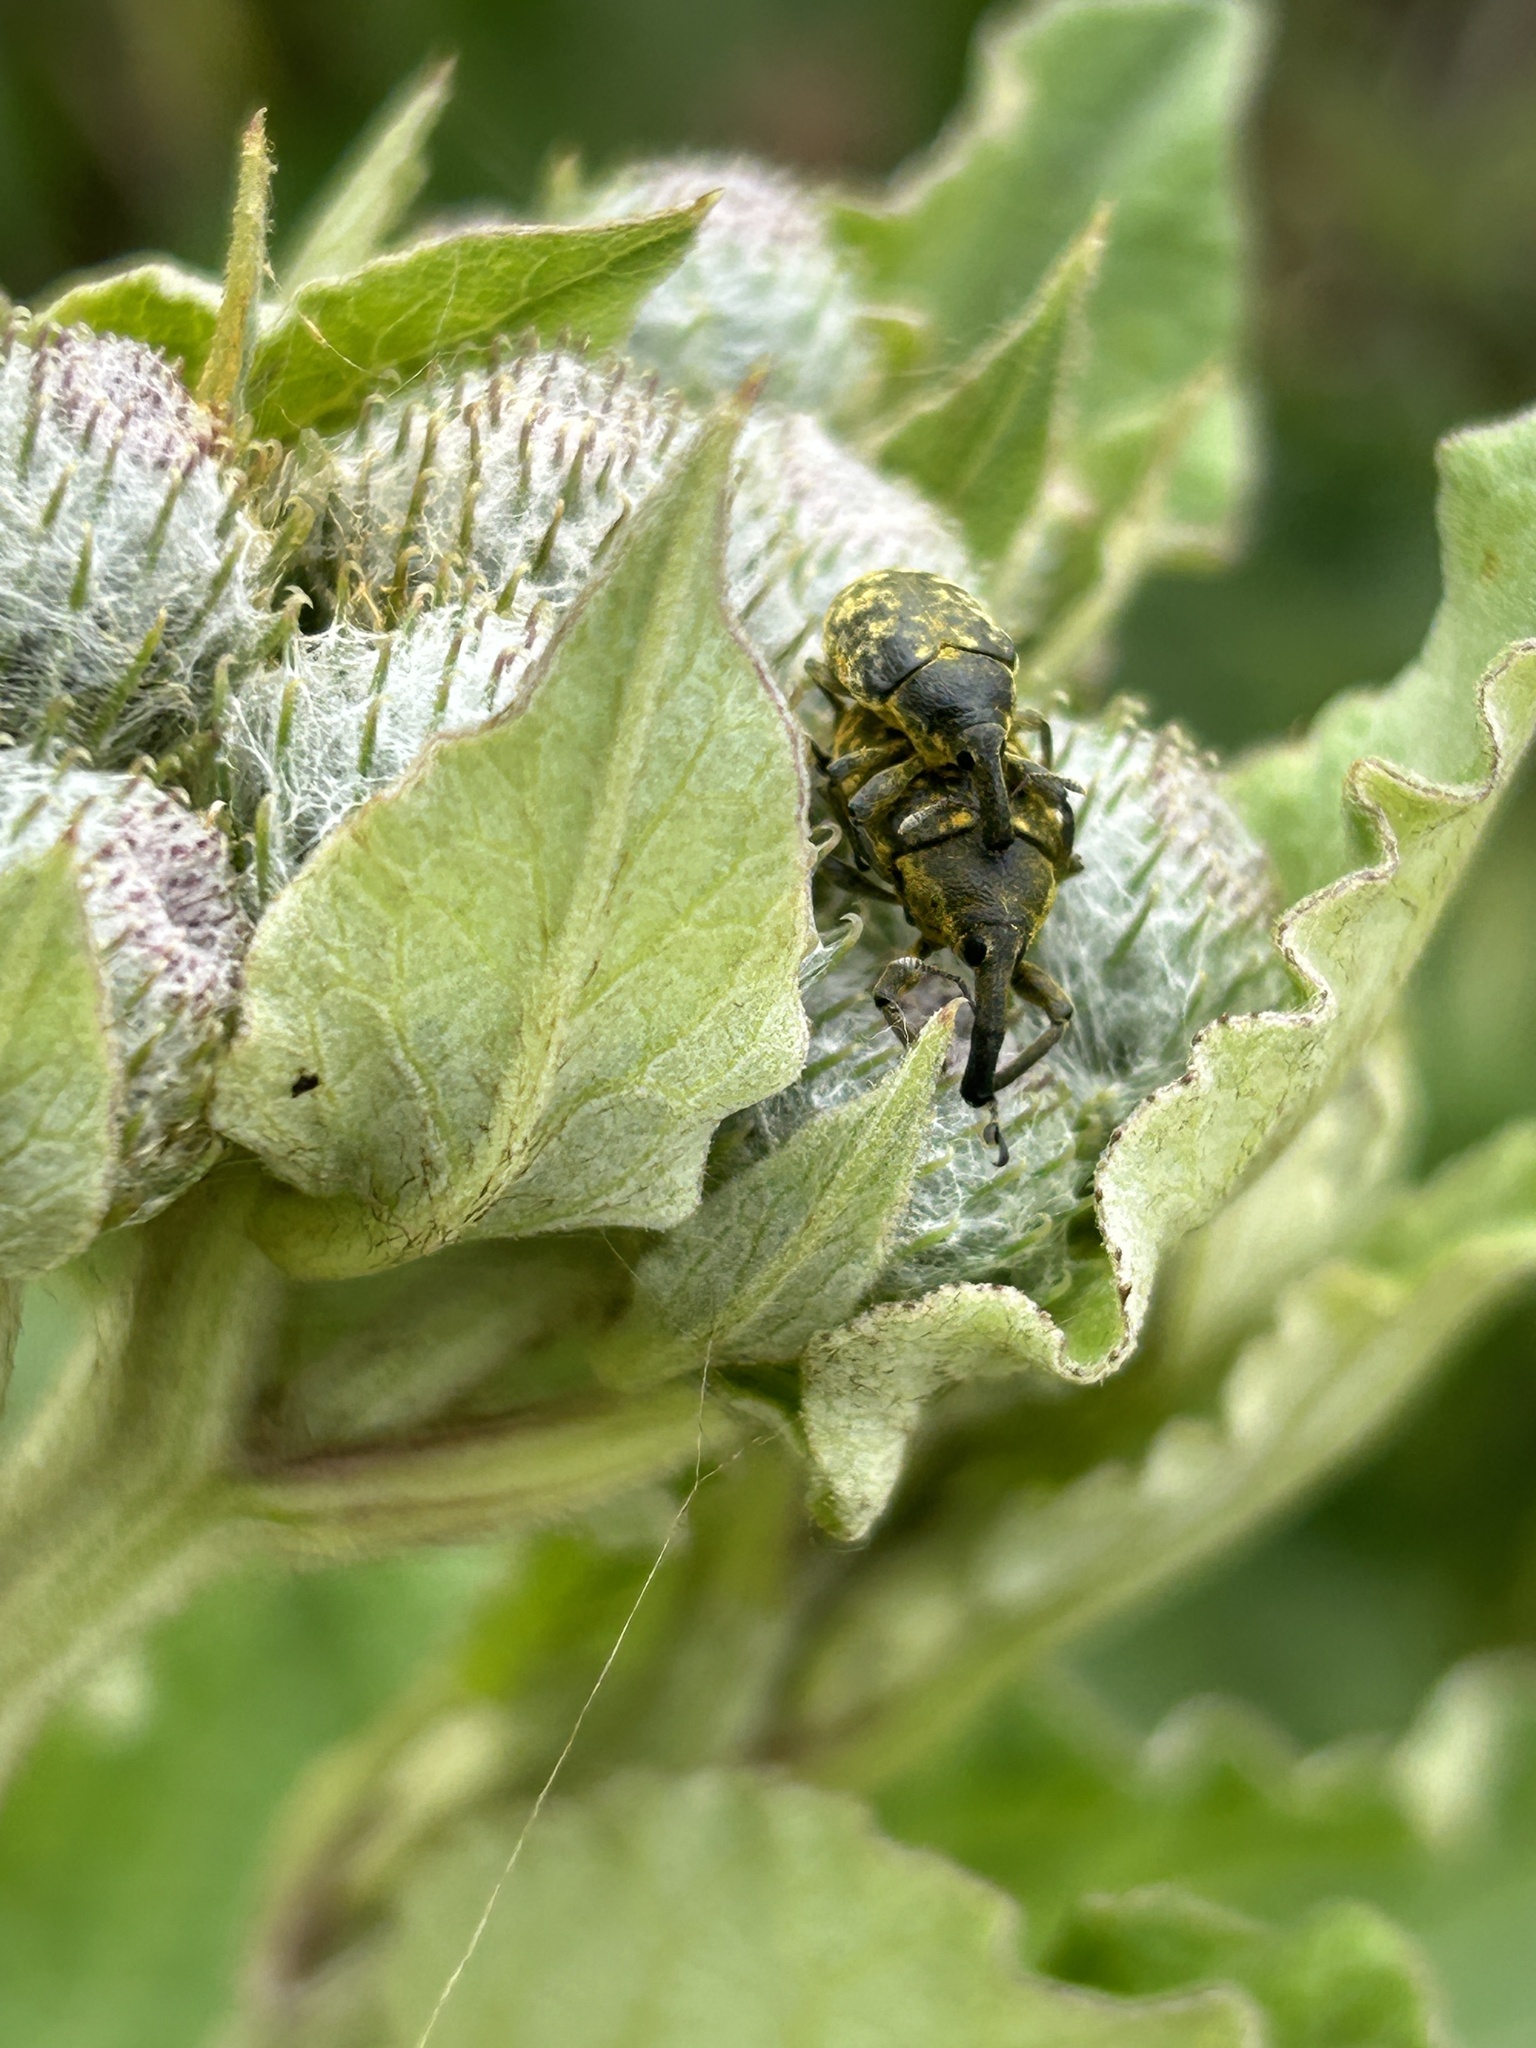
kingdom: Animalia
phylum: Arthropoda
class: Insecta
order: Coleoptera
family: Curculionidae
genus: Larinus
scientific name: Larinus sturnus
